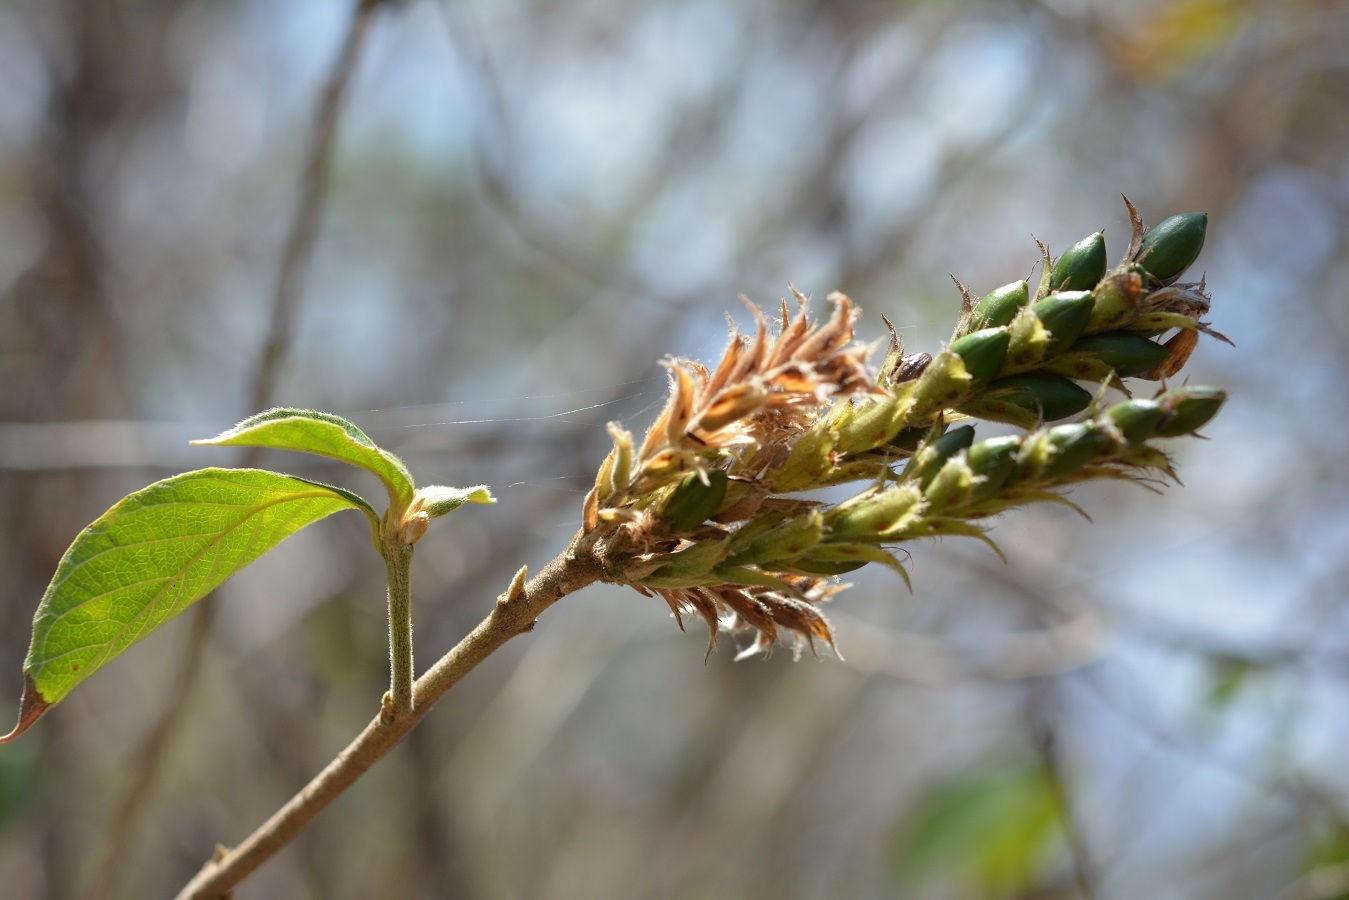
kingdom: Plantae
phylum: Tracheophyta
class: Magnoliopsida
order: Lamiales
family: Acanthaceae
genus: Aphelandra
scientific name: Aphelandra scabra
